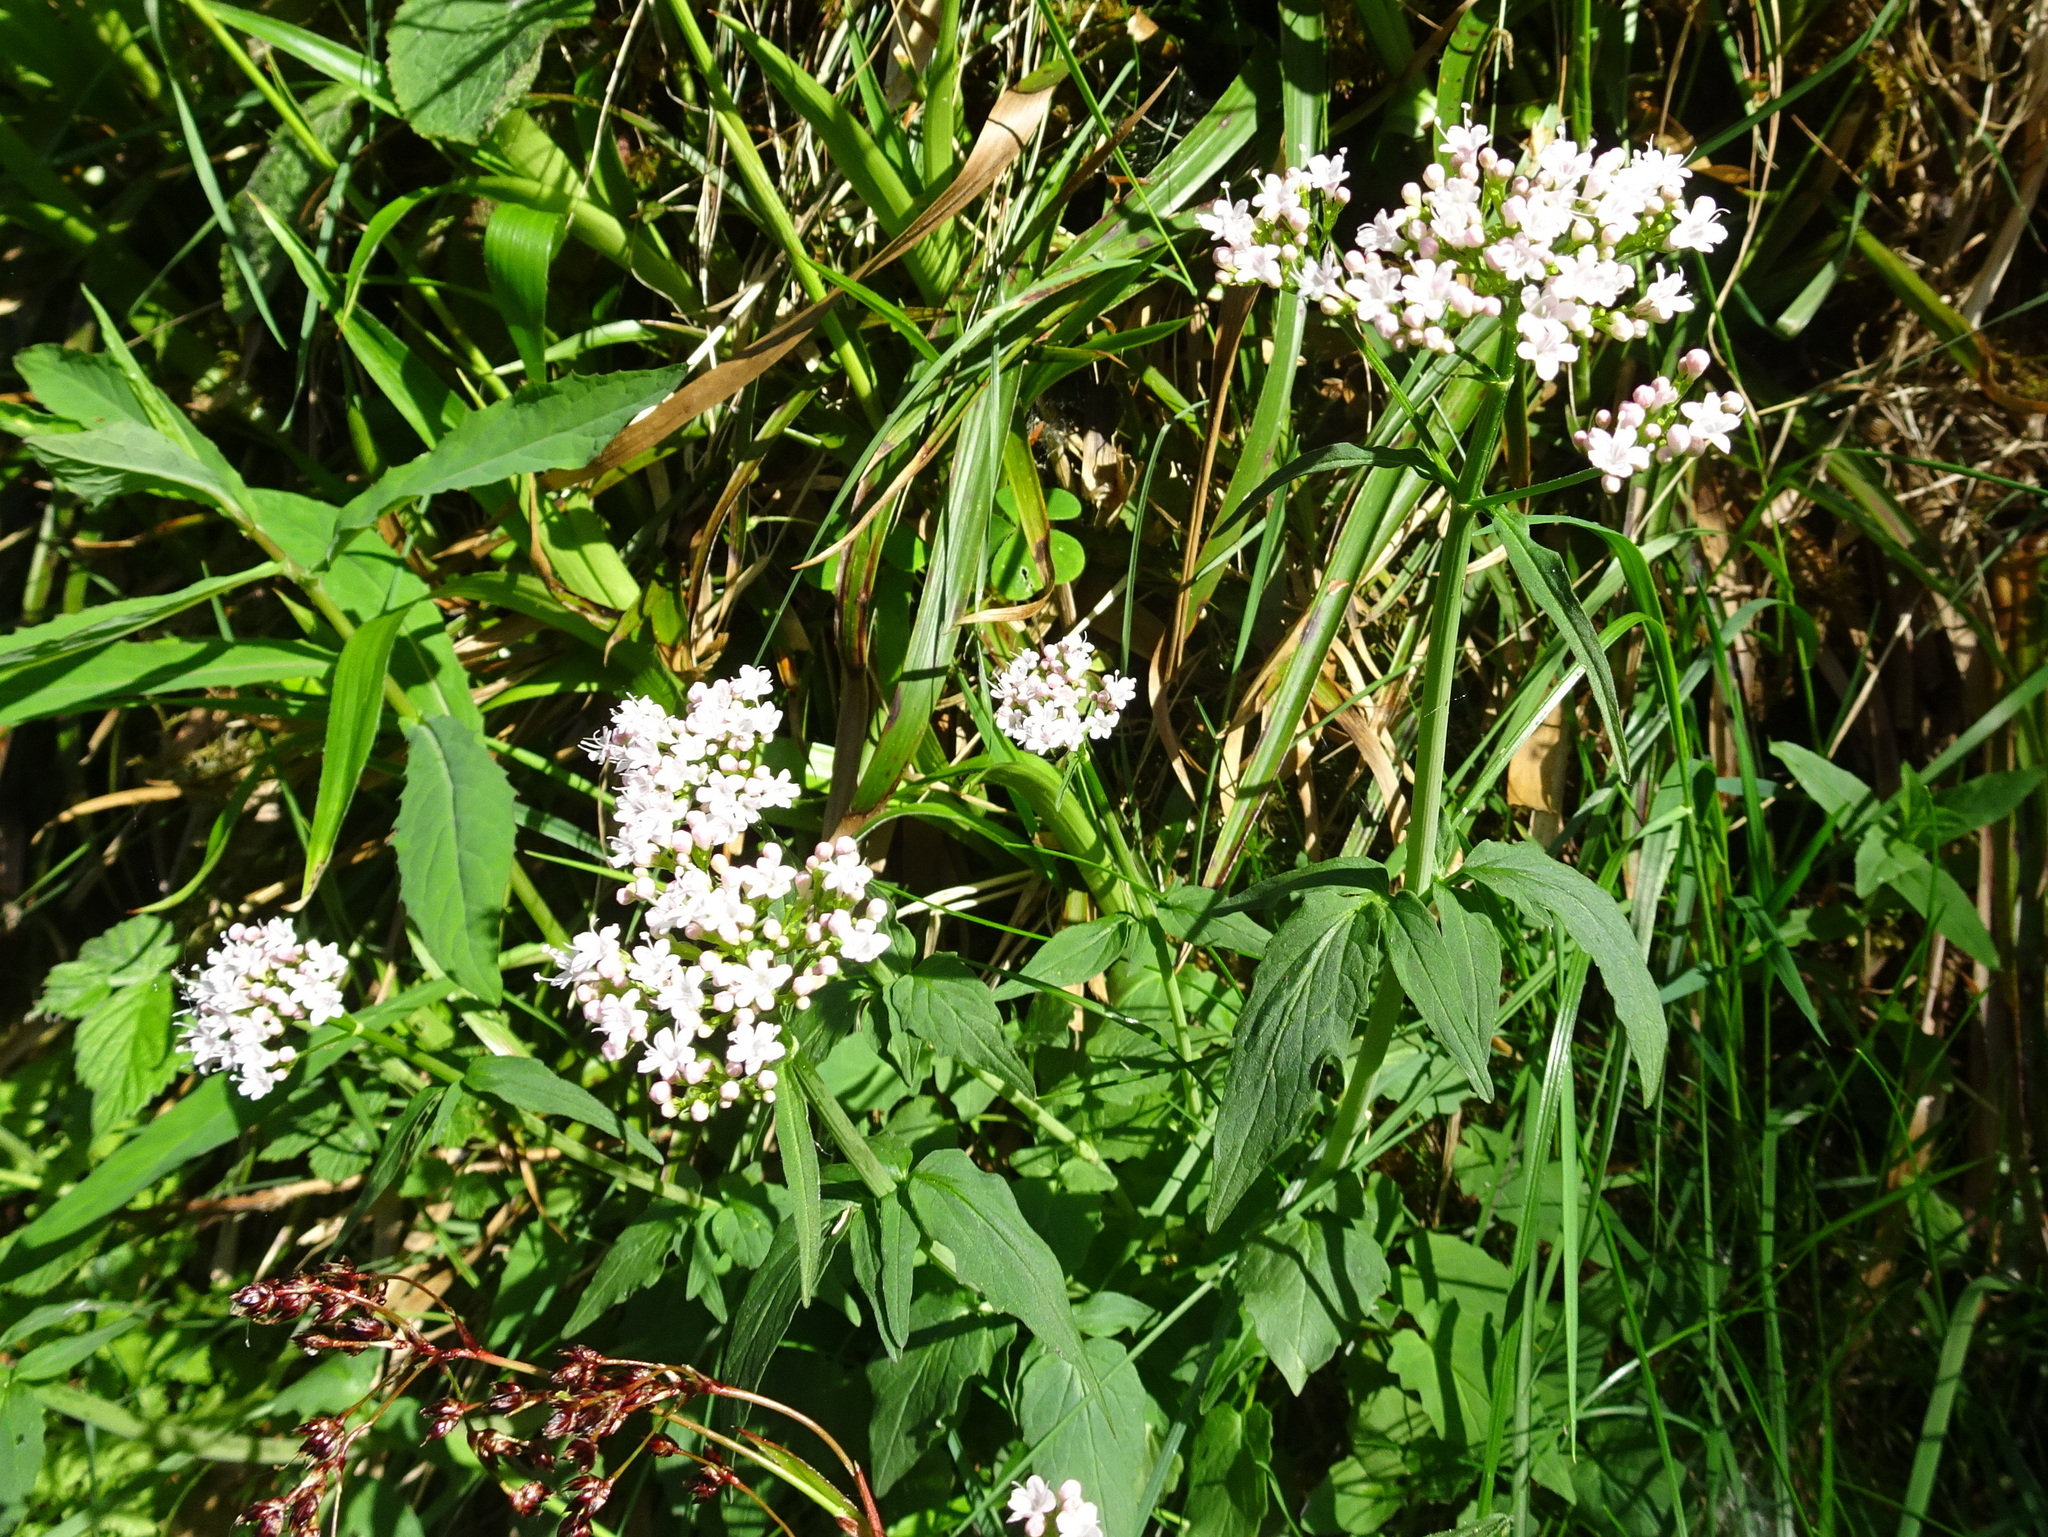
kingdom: Plantae
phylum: Tracheophyta
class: Magnoliopsida
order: Dipsacales
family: Caprifoliaceae
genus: Valeriana
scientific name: Valeriana officinalis
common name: Common valerian
